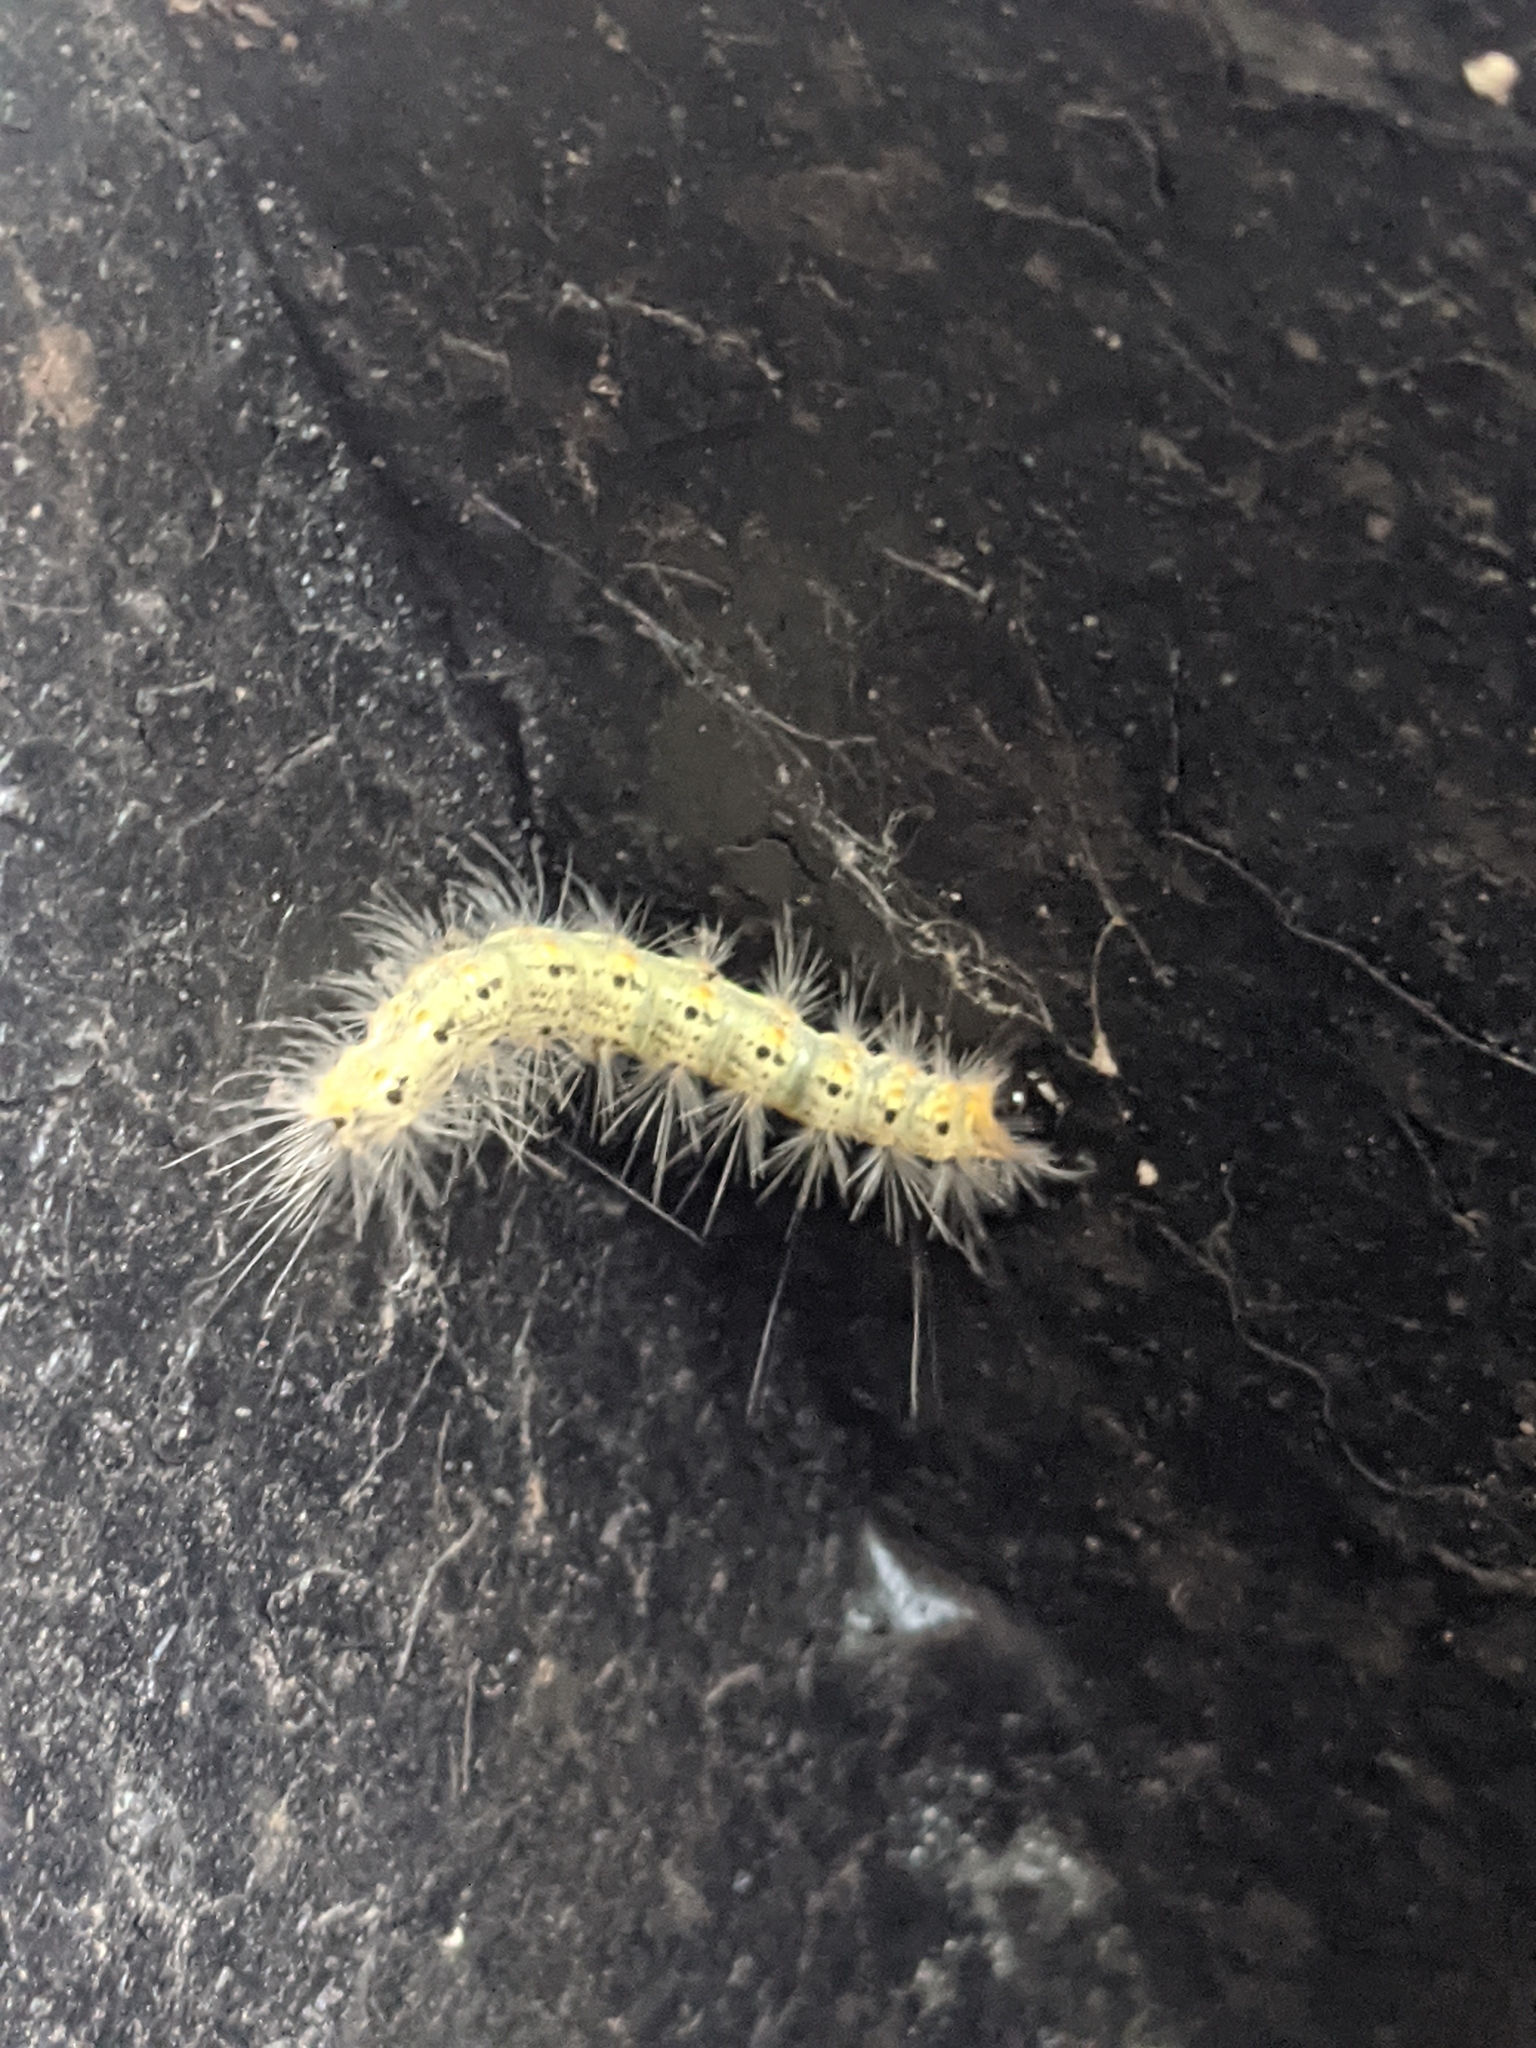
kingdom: Animalia
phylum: Arthropoda
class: Insecta
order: Lepidoptera
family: Erebidae
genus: Hyphantria
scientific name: Hyphantria cunea
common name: American white moth
